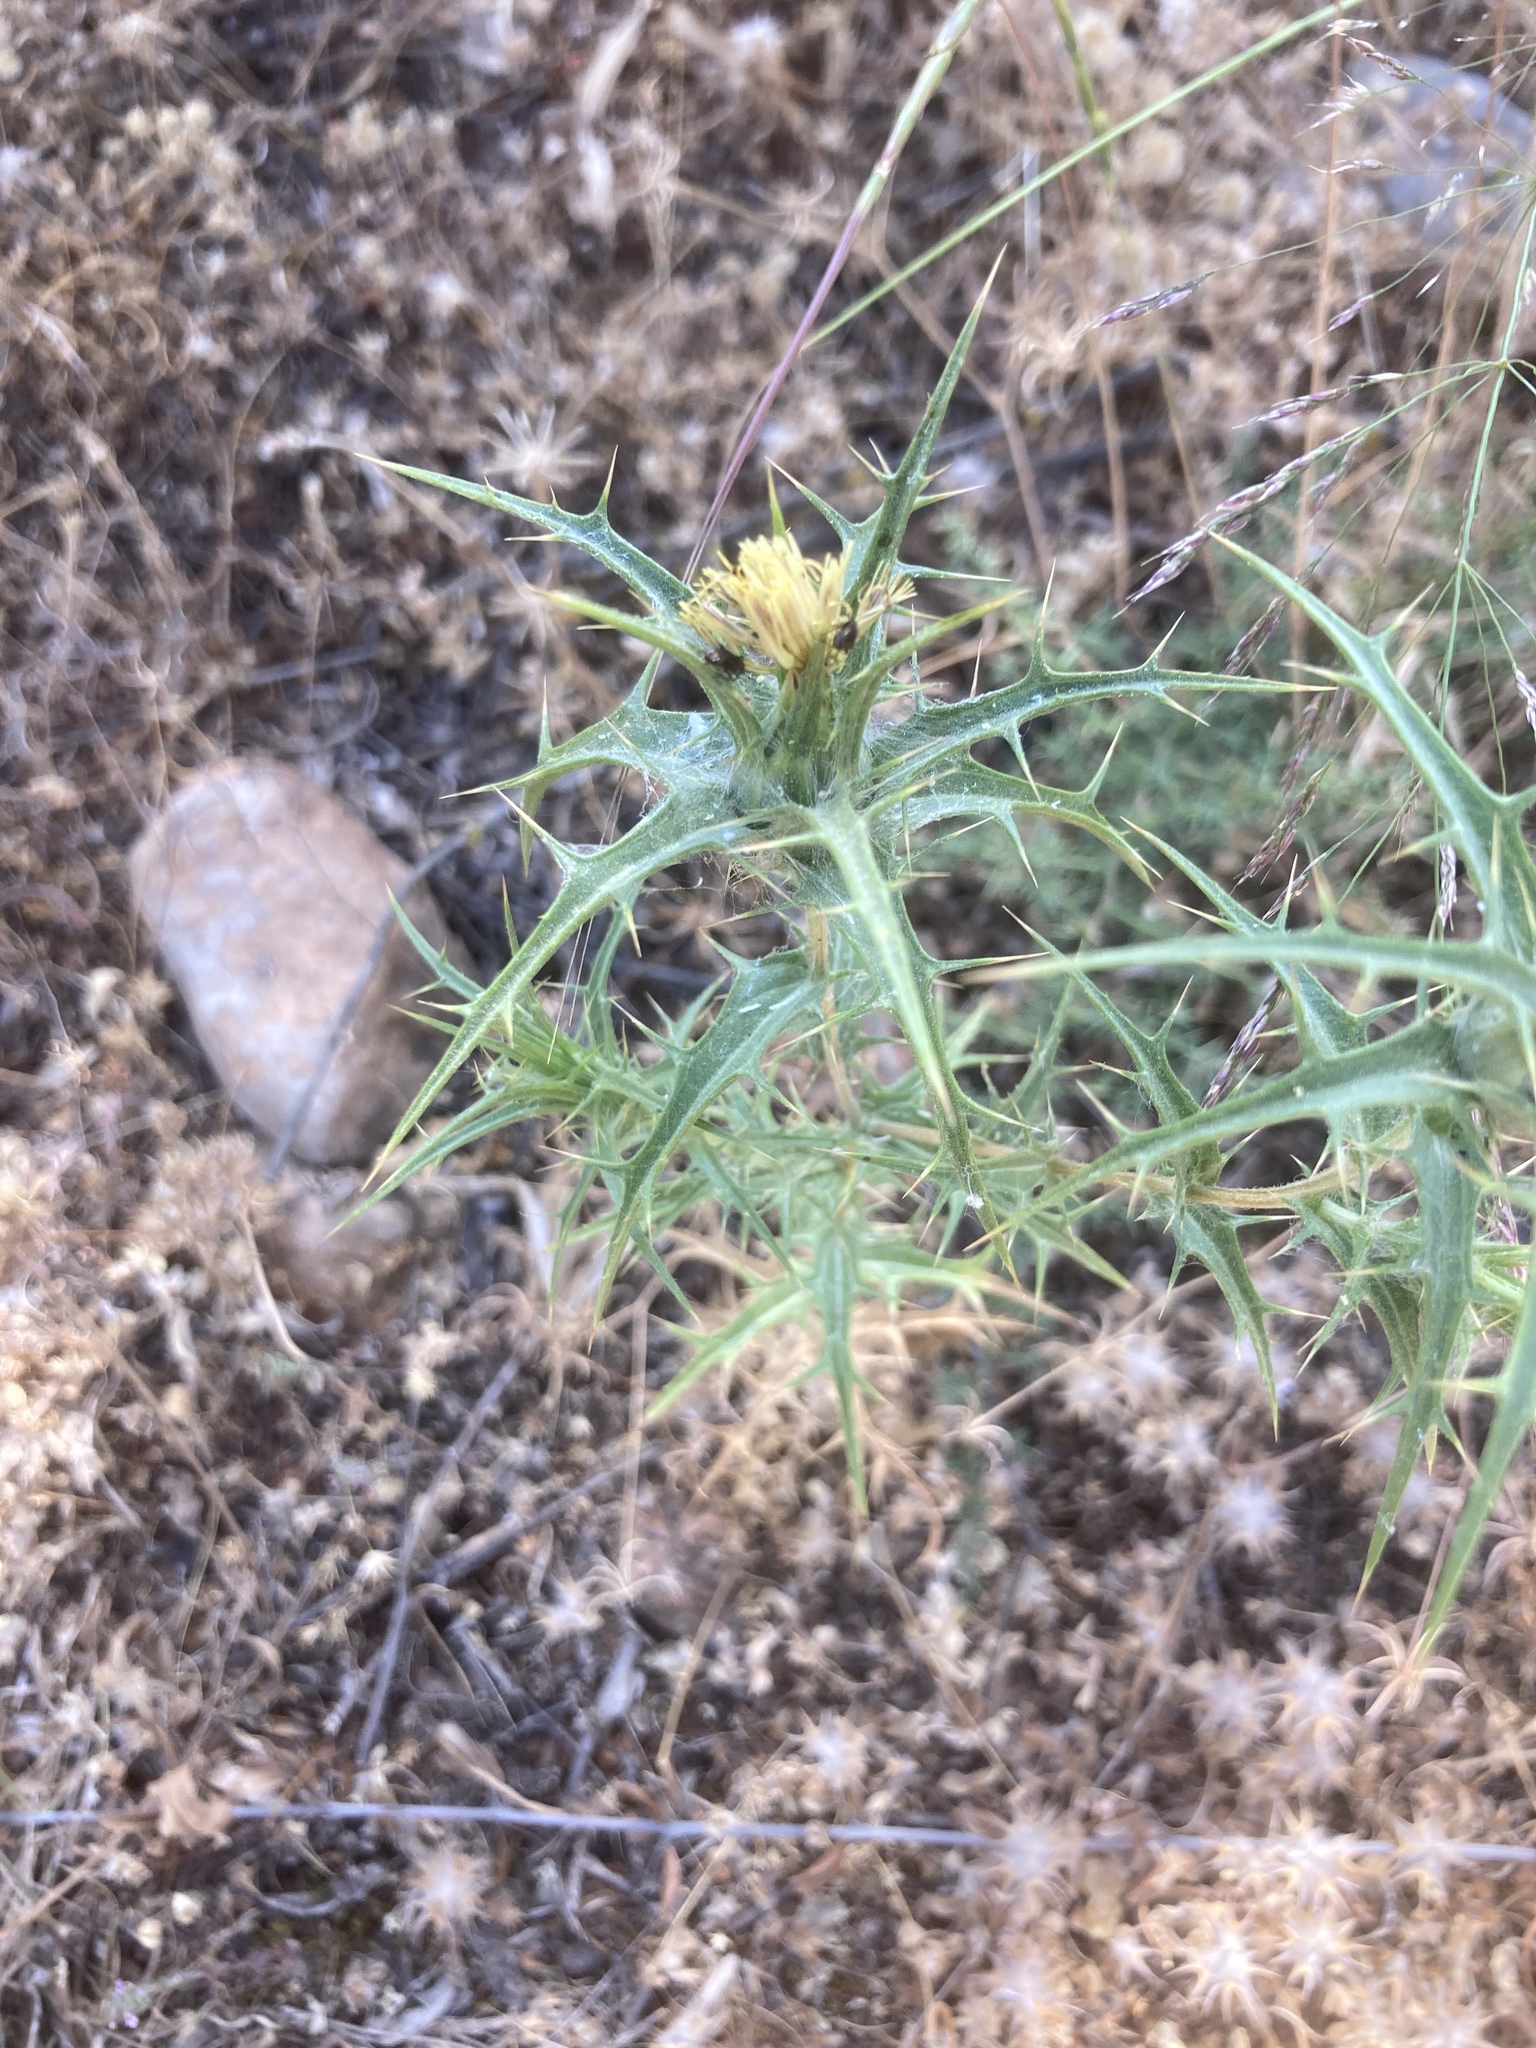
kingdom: Plantae
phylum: Tracheophyta
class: Magnoliopsida
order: Asterales
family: Asteraceae
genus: Carthamus
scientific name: Carthamus lanatus
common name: Downy safflower
